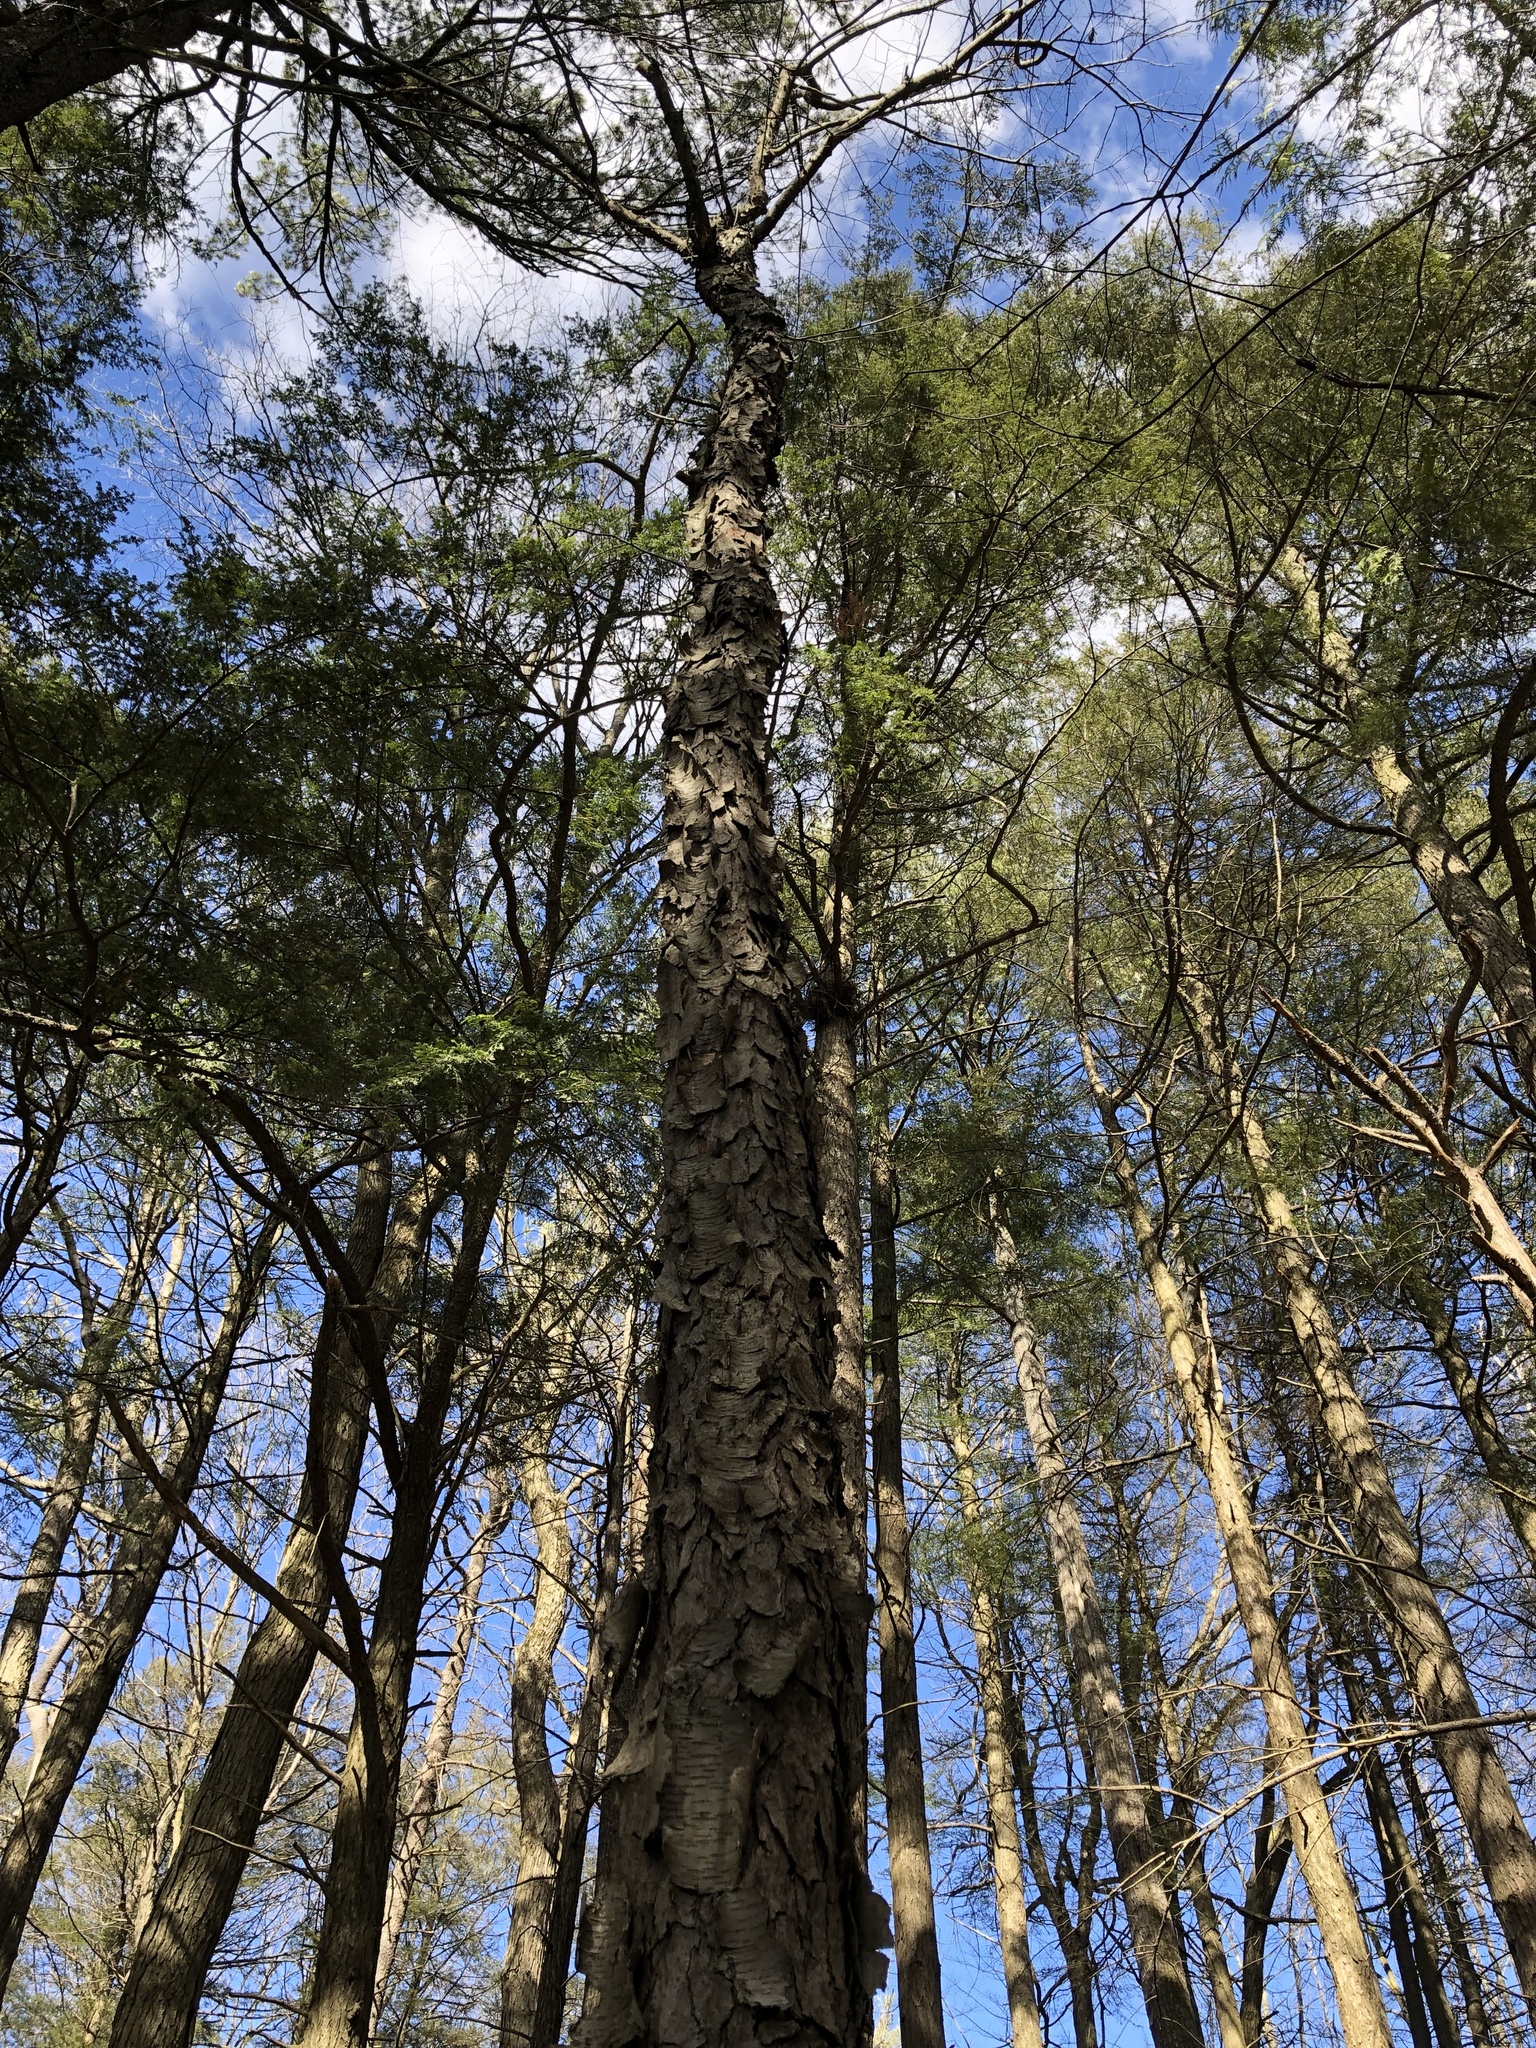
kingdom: Plantae
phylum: Tracheophyta
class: Magnoliopsida
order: Rosales
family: Rosaceae
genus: Prunus
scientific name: Prunus serotina
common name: Black cherry
